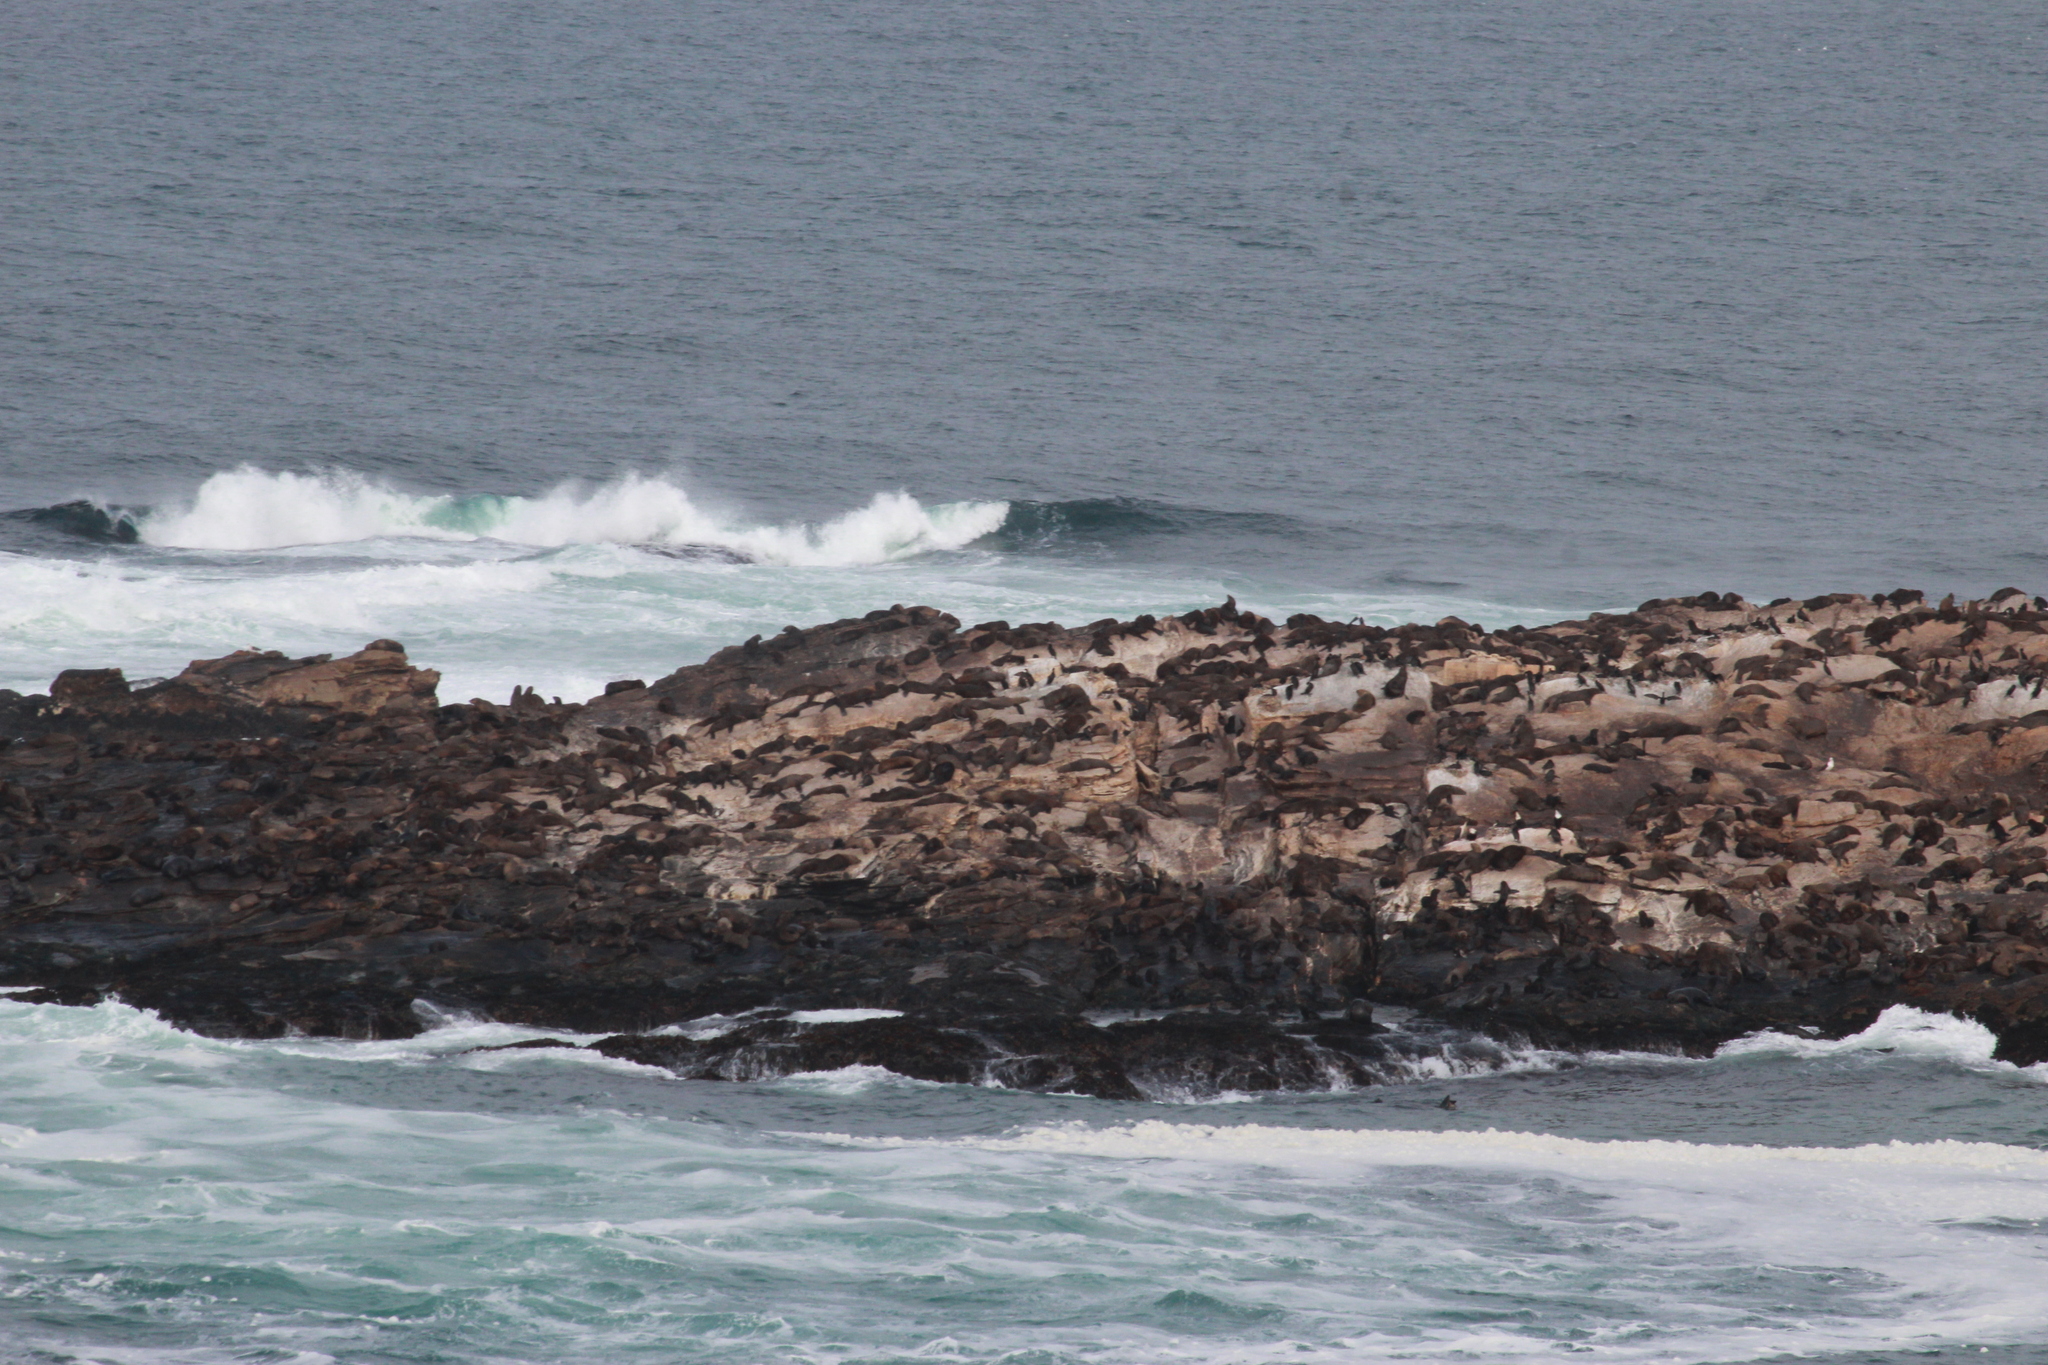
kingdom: Animalia
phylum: Chordata
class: Mammalia
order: Carnivora
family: Otariidae
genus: Arctocephalus
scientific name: Arctocephalus pusillus
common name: Brown fur seal
